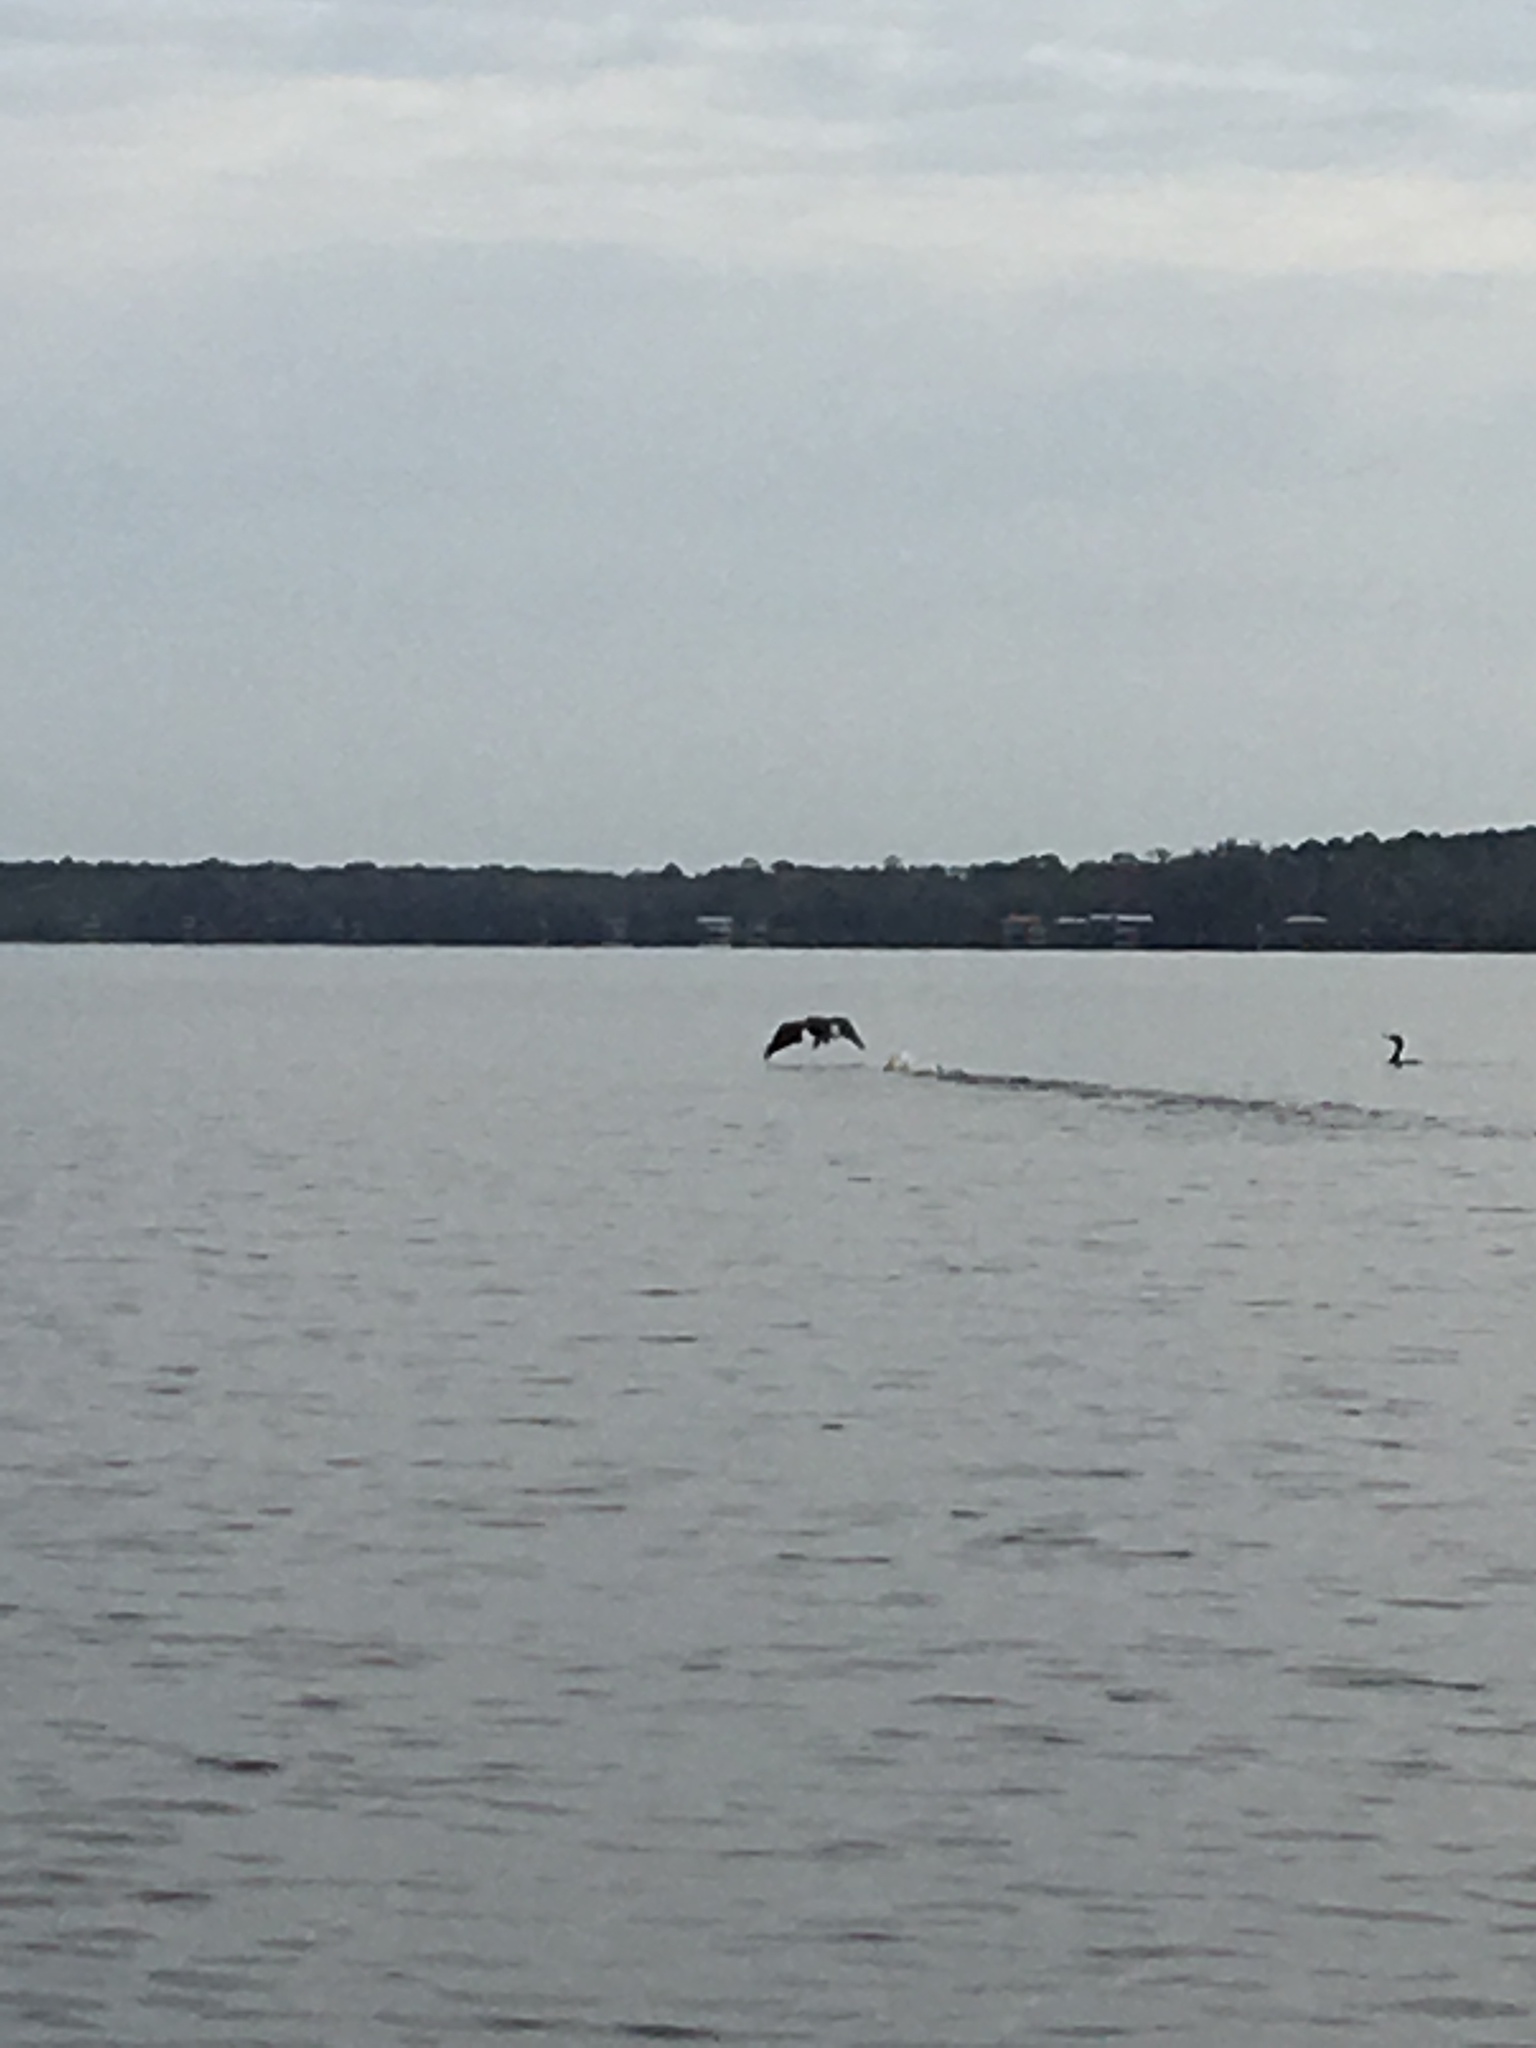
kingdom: Animalia
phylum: Chordata
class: Aves
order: Suliformes
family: Phalacrocoracidae
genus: Phalacrocorax
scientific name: Phalacrocorax auritus
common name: Double-crested cormorant
